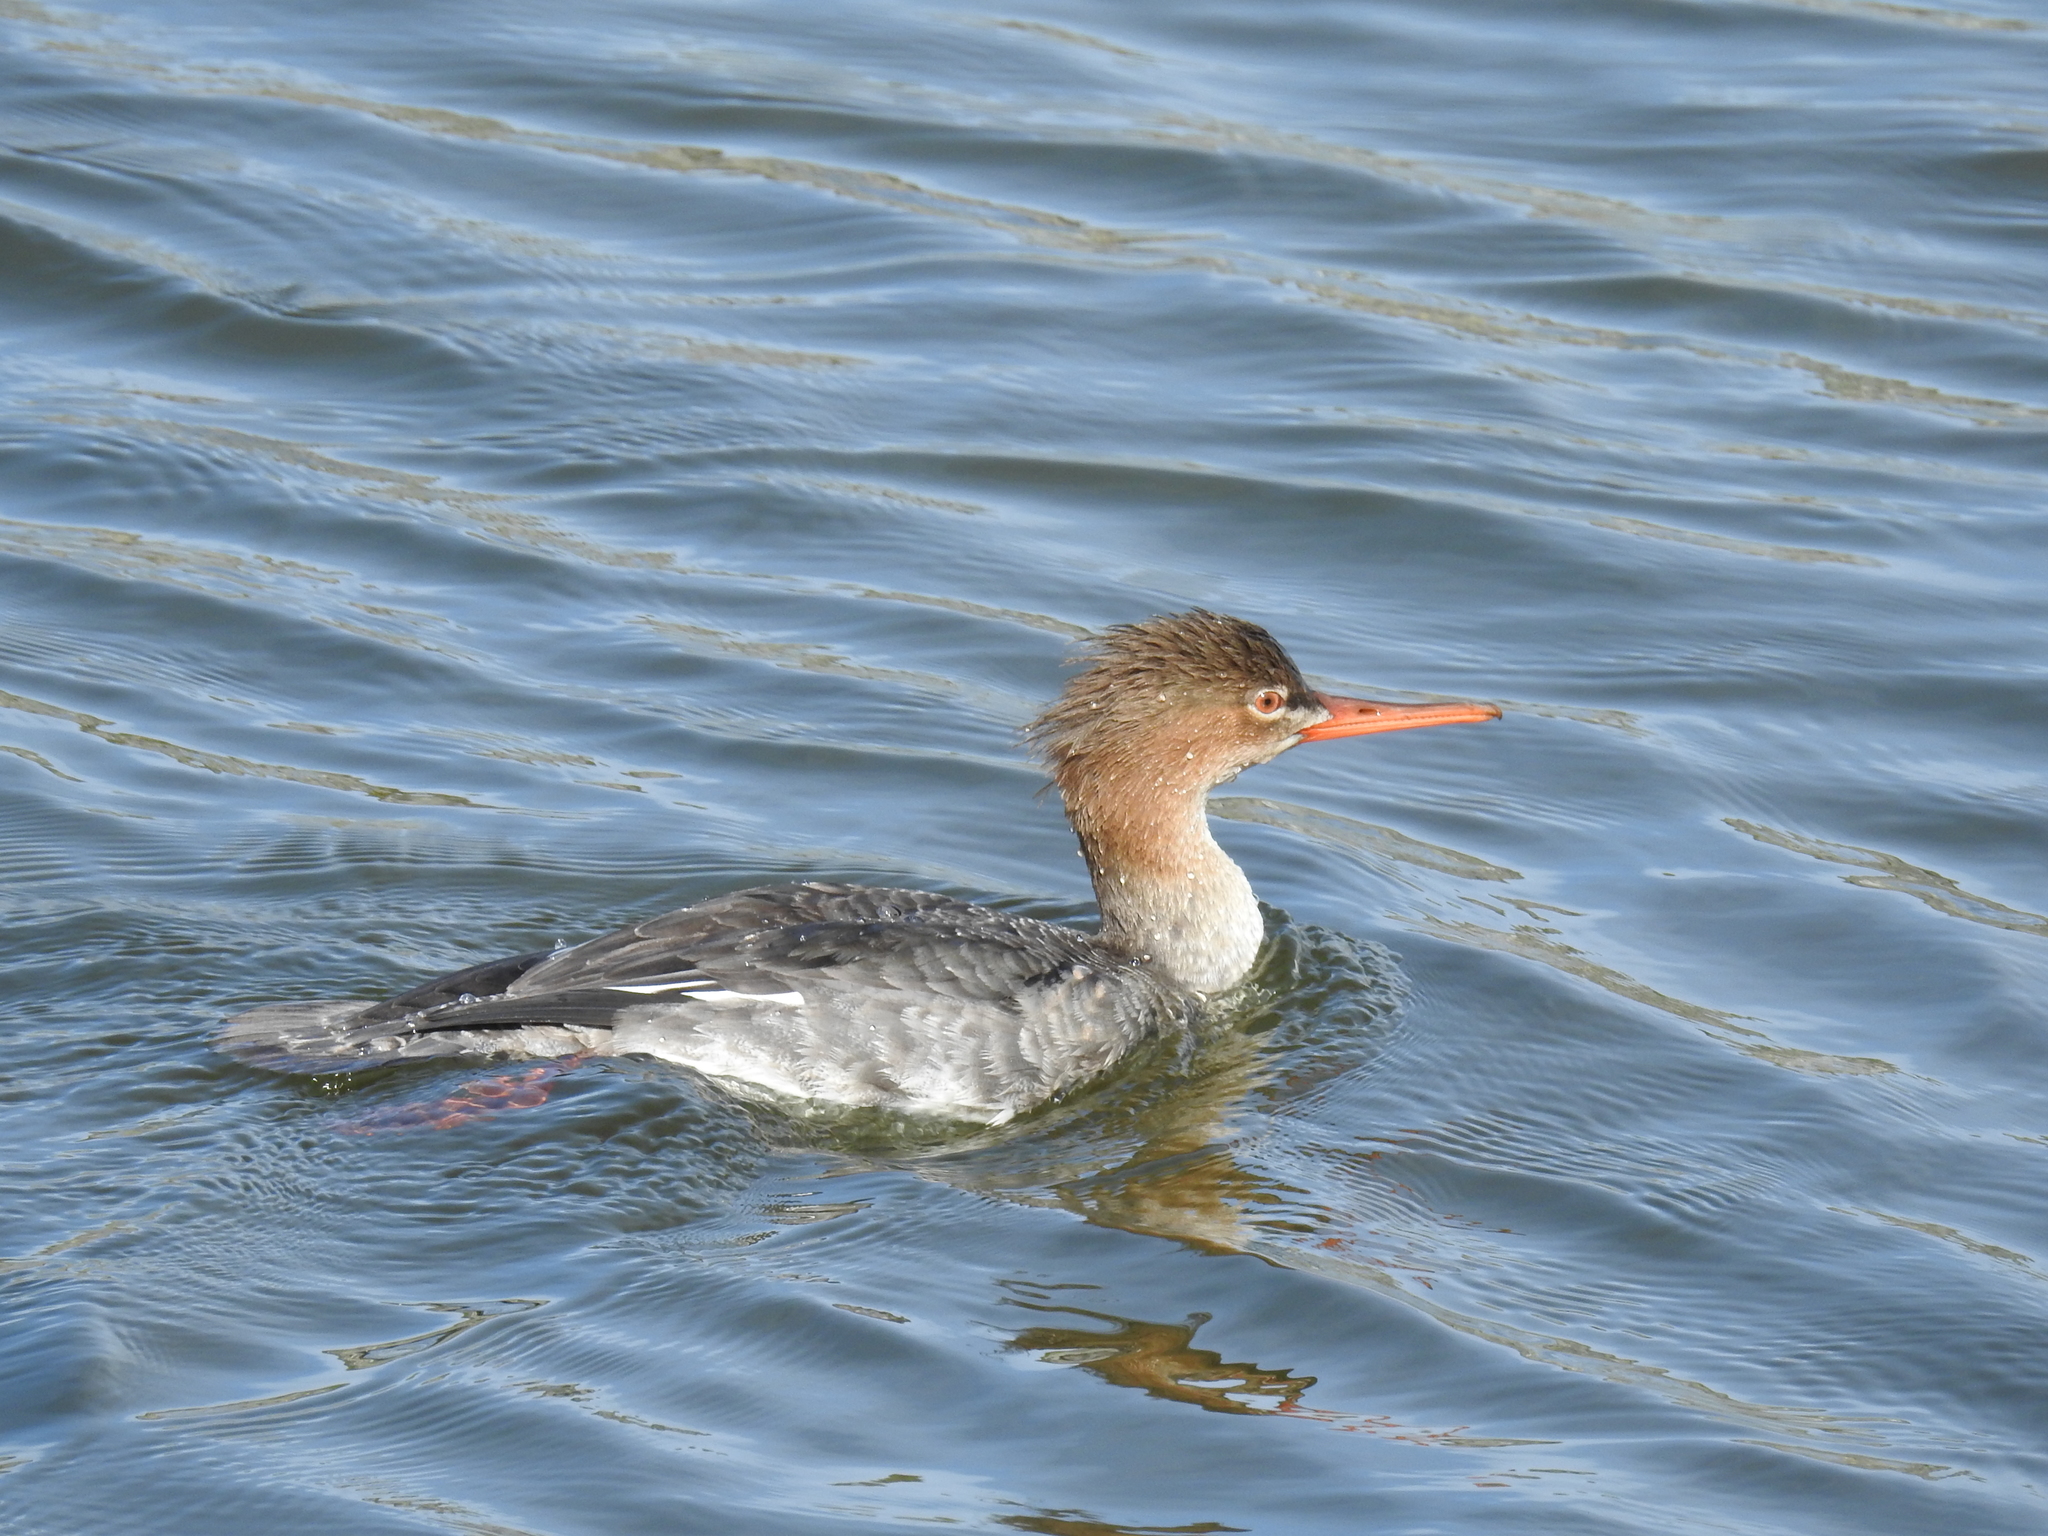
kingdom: Animalia
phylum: Chordata
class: Aves
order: Anseriformes
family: Anatidae
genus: Mergus
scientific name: Mergus serrator
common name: Red-breasted merganser
